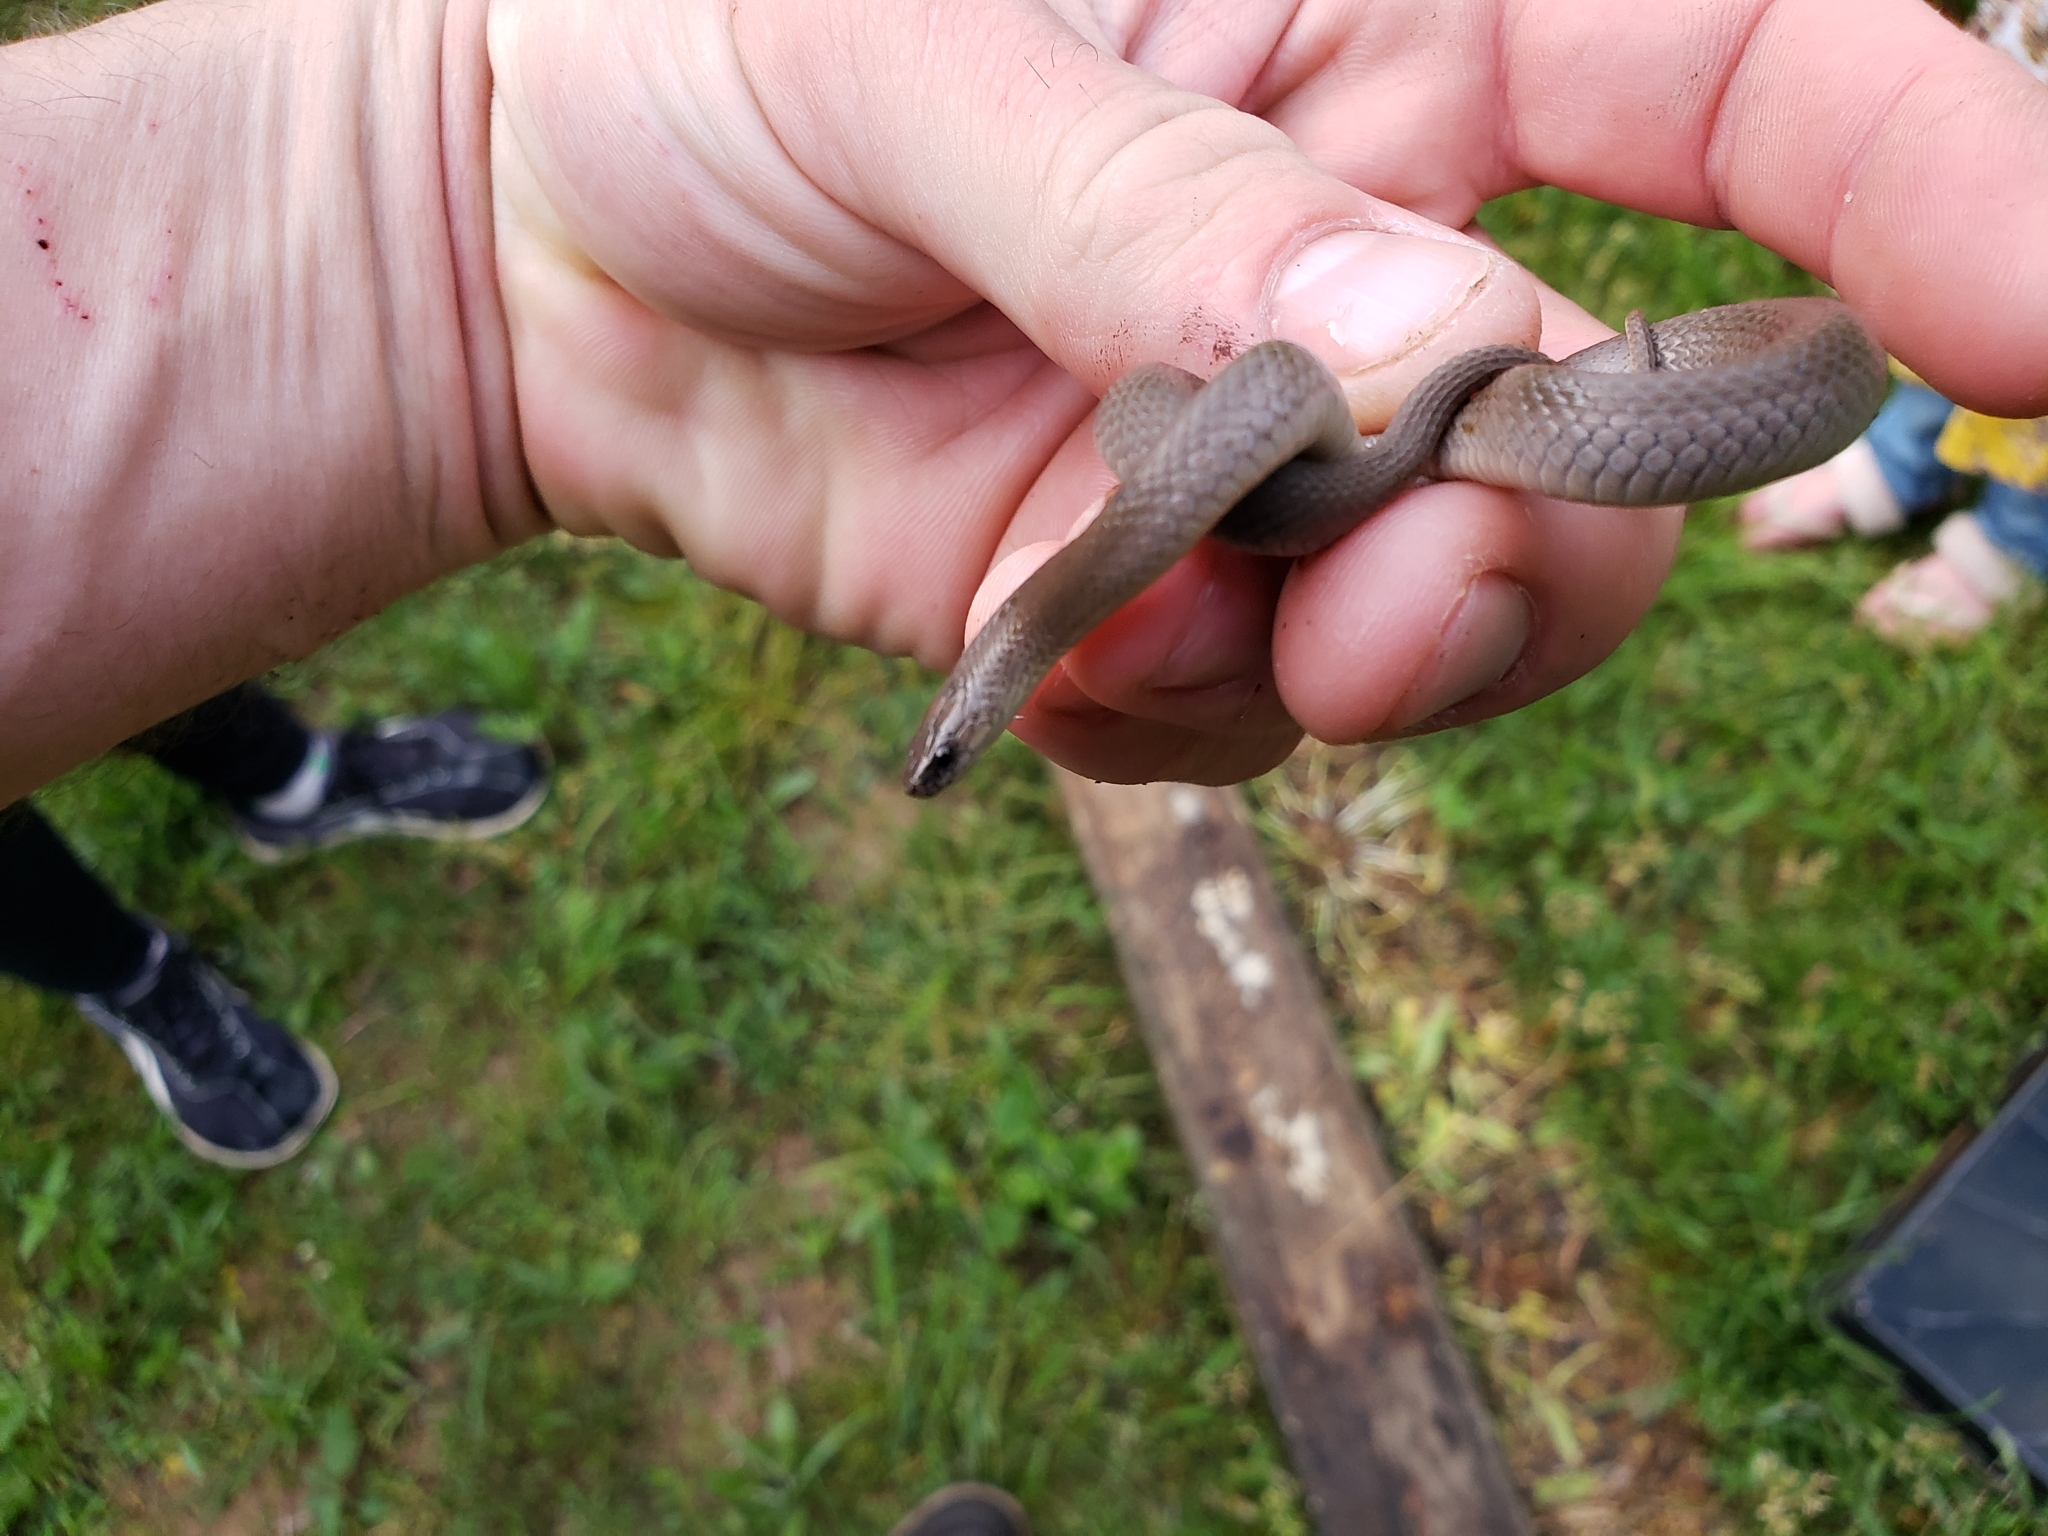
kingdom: Animalia
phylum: Chordata
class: Squamata
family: Colubridae
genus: Haldea
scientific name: Haldea striatula
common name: Rough earth snake
